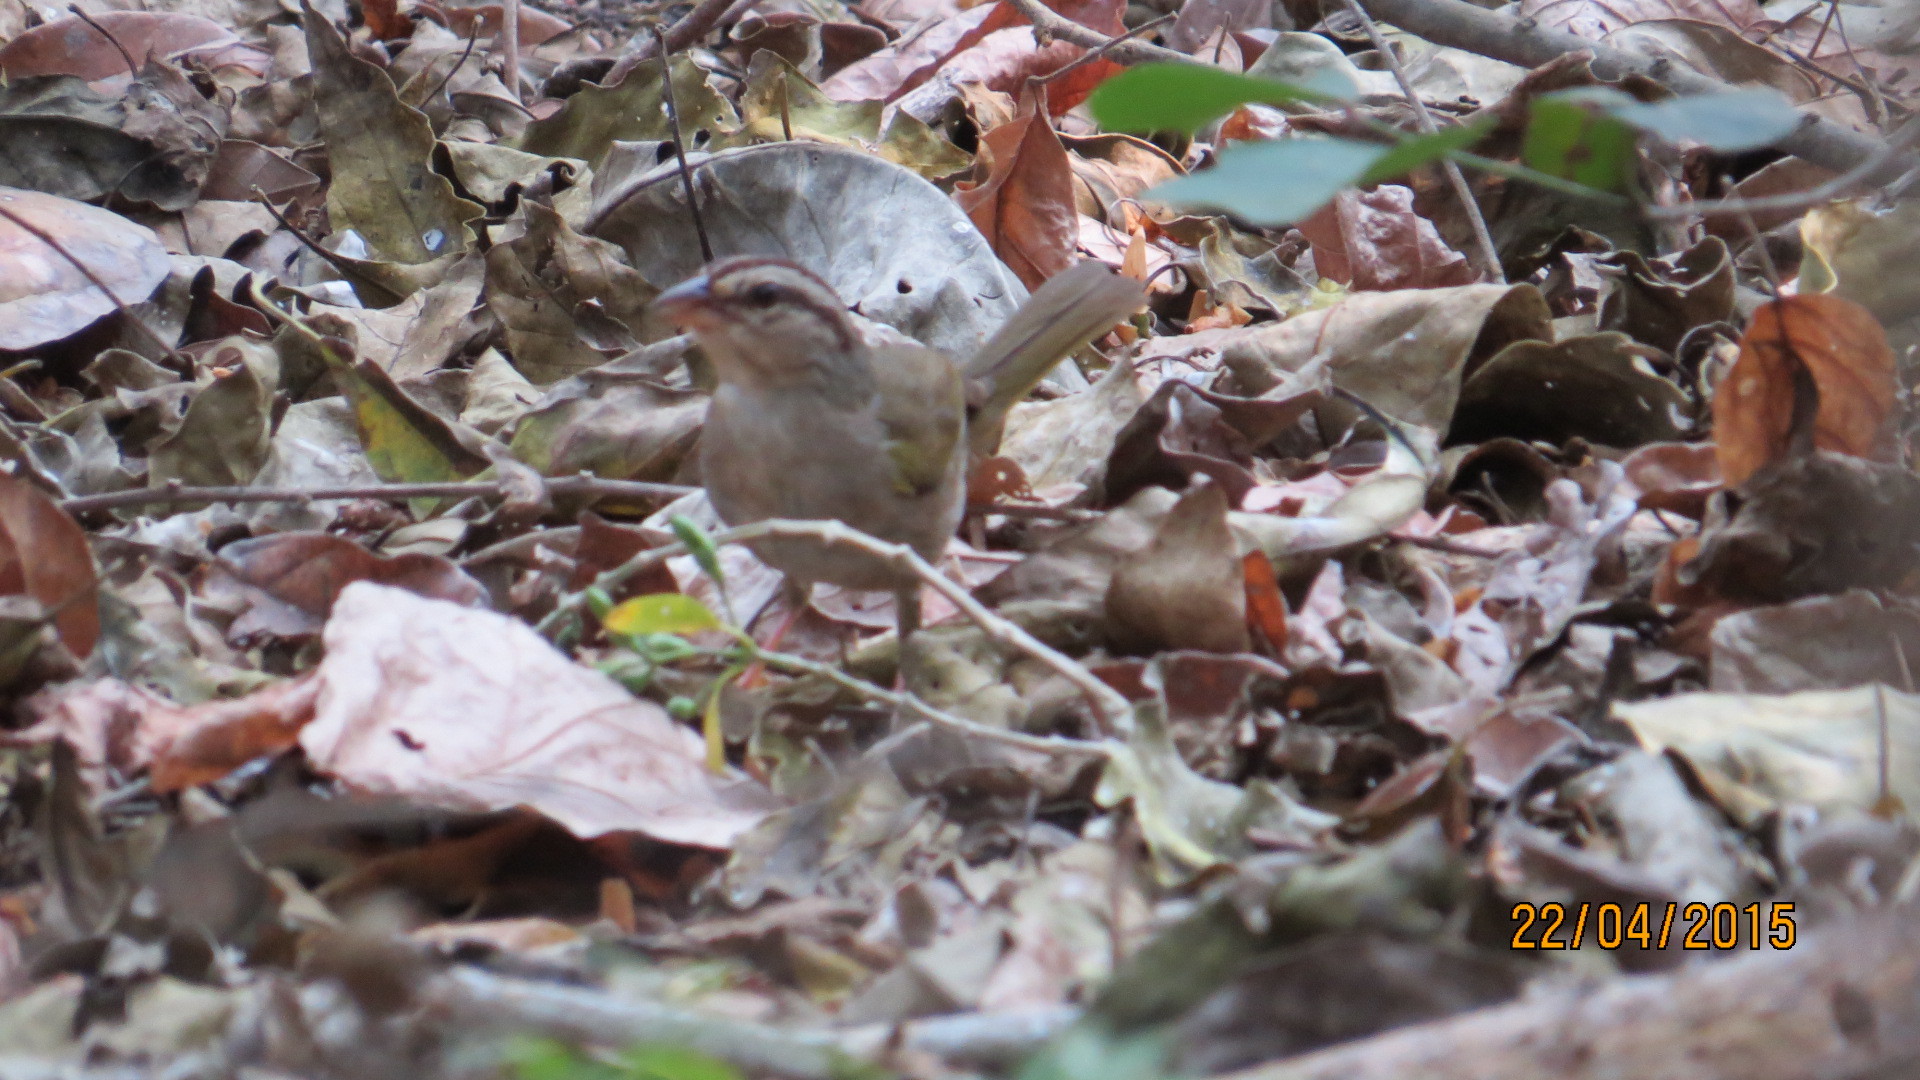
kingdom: Animalia
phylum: Chordata
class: Aves
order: Passeriformes
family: Passerellidae
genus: Arremonops
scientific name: Arremonops rufivirgatus
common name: Olive sparrow
